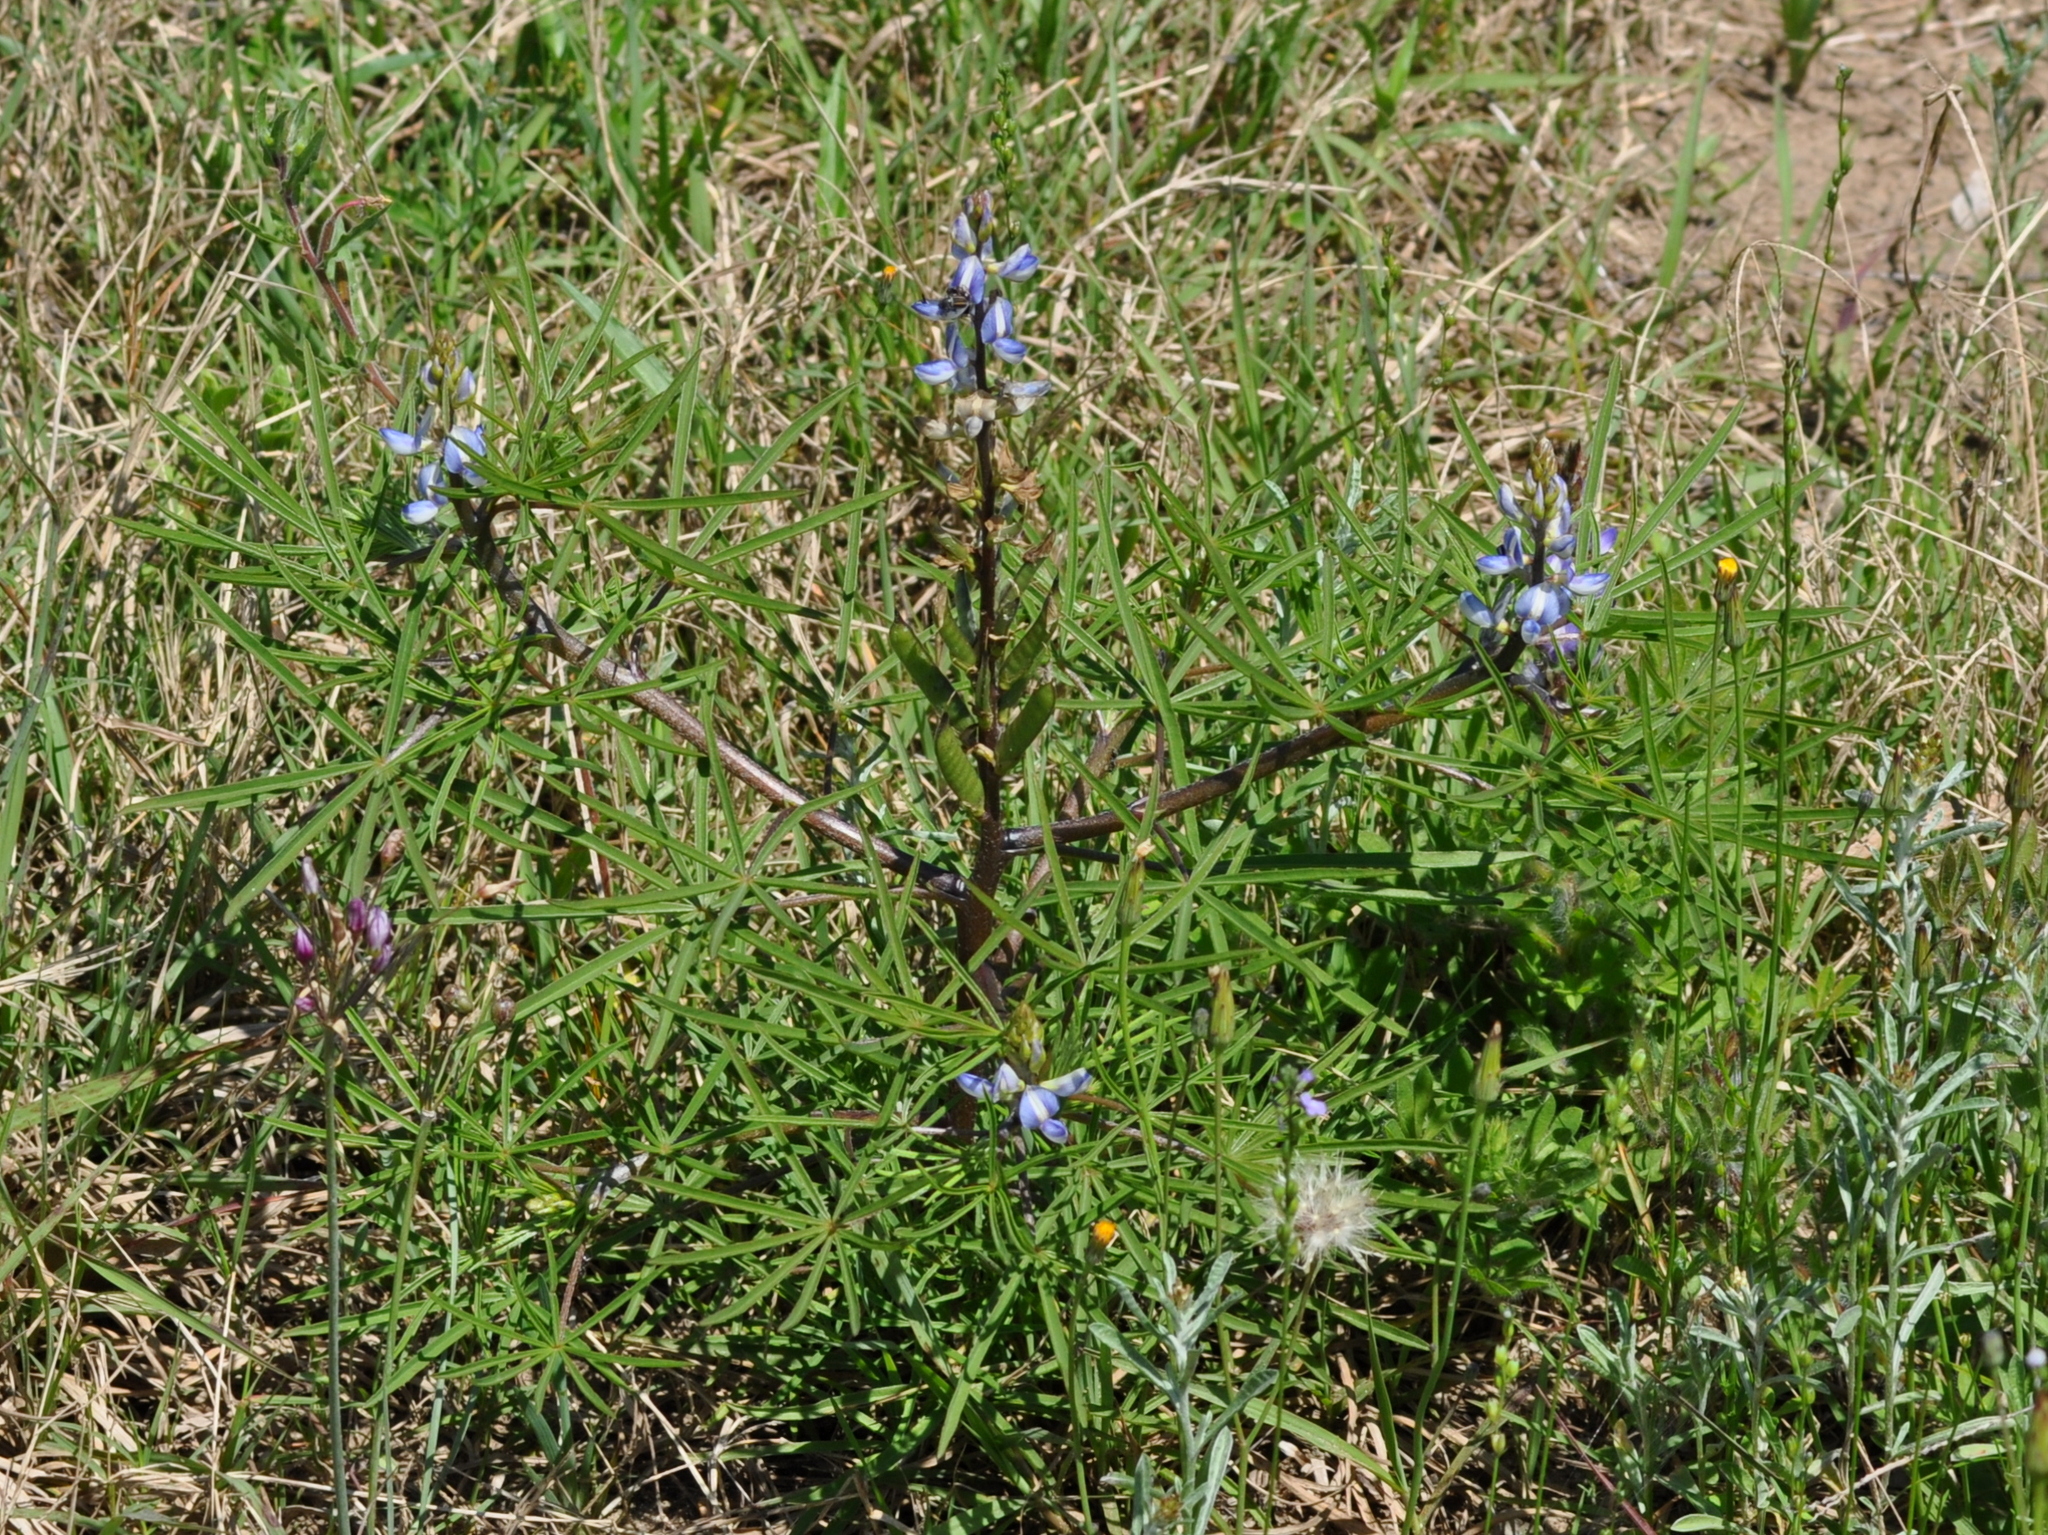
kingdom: Plantae
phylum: Tracheophyta
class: Magnoliopsida
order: Fabales
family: Fabaceae
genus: Lupinus
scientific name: Lupinus linearis
